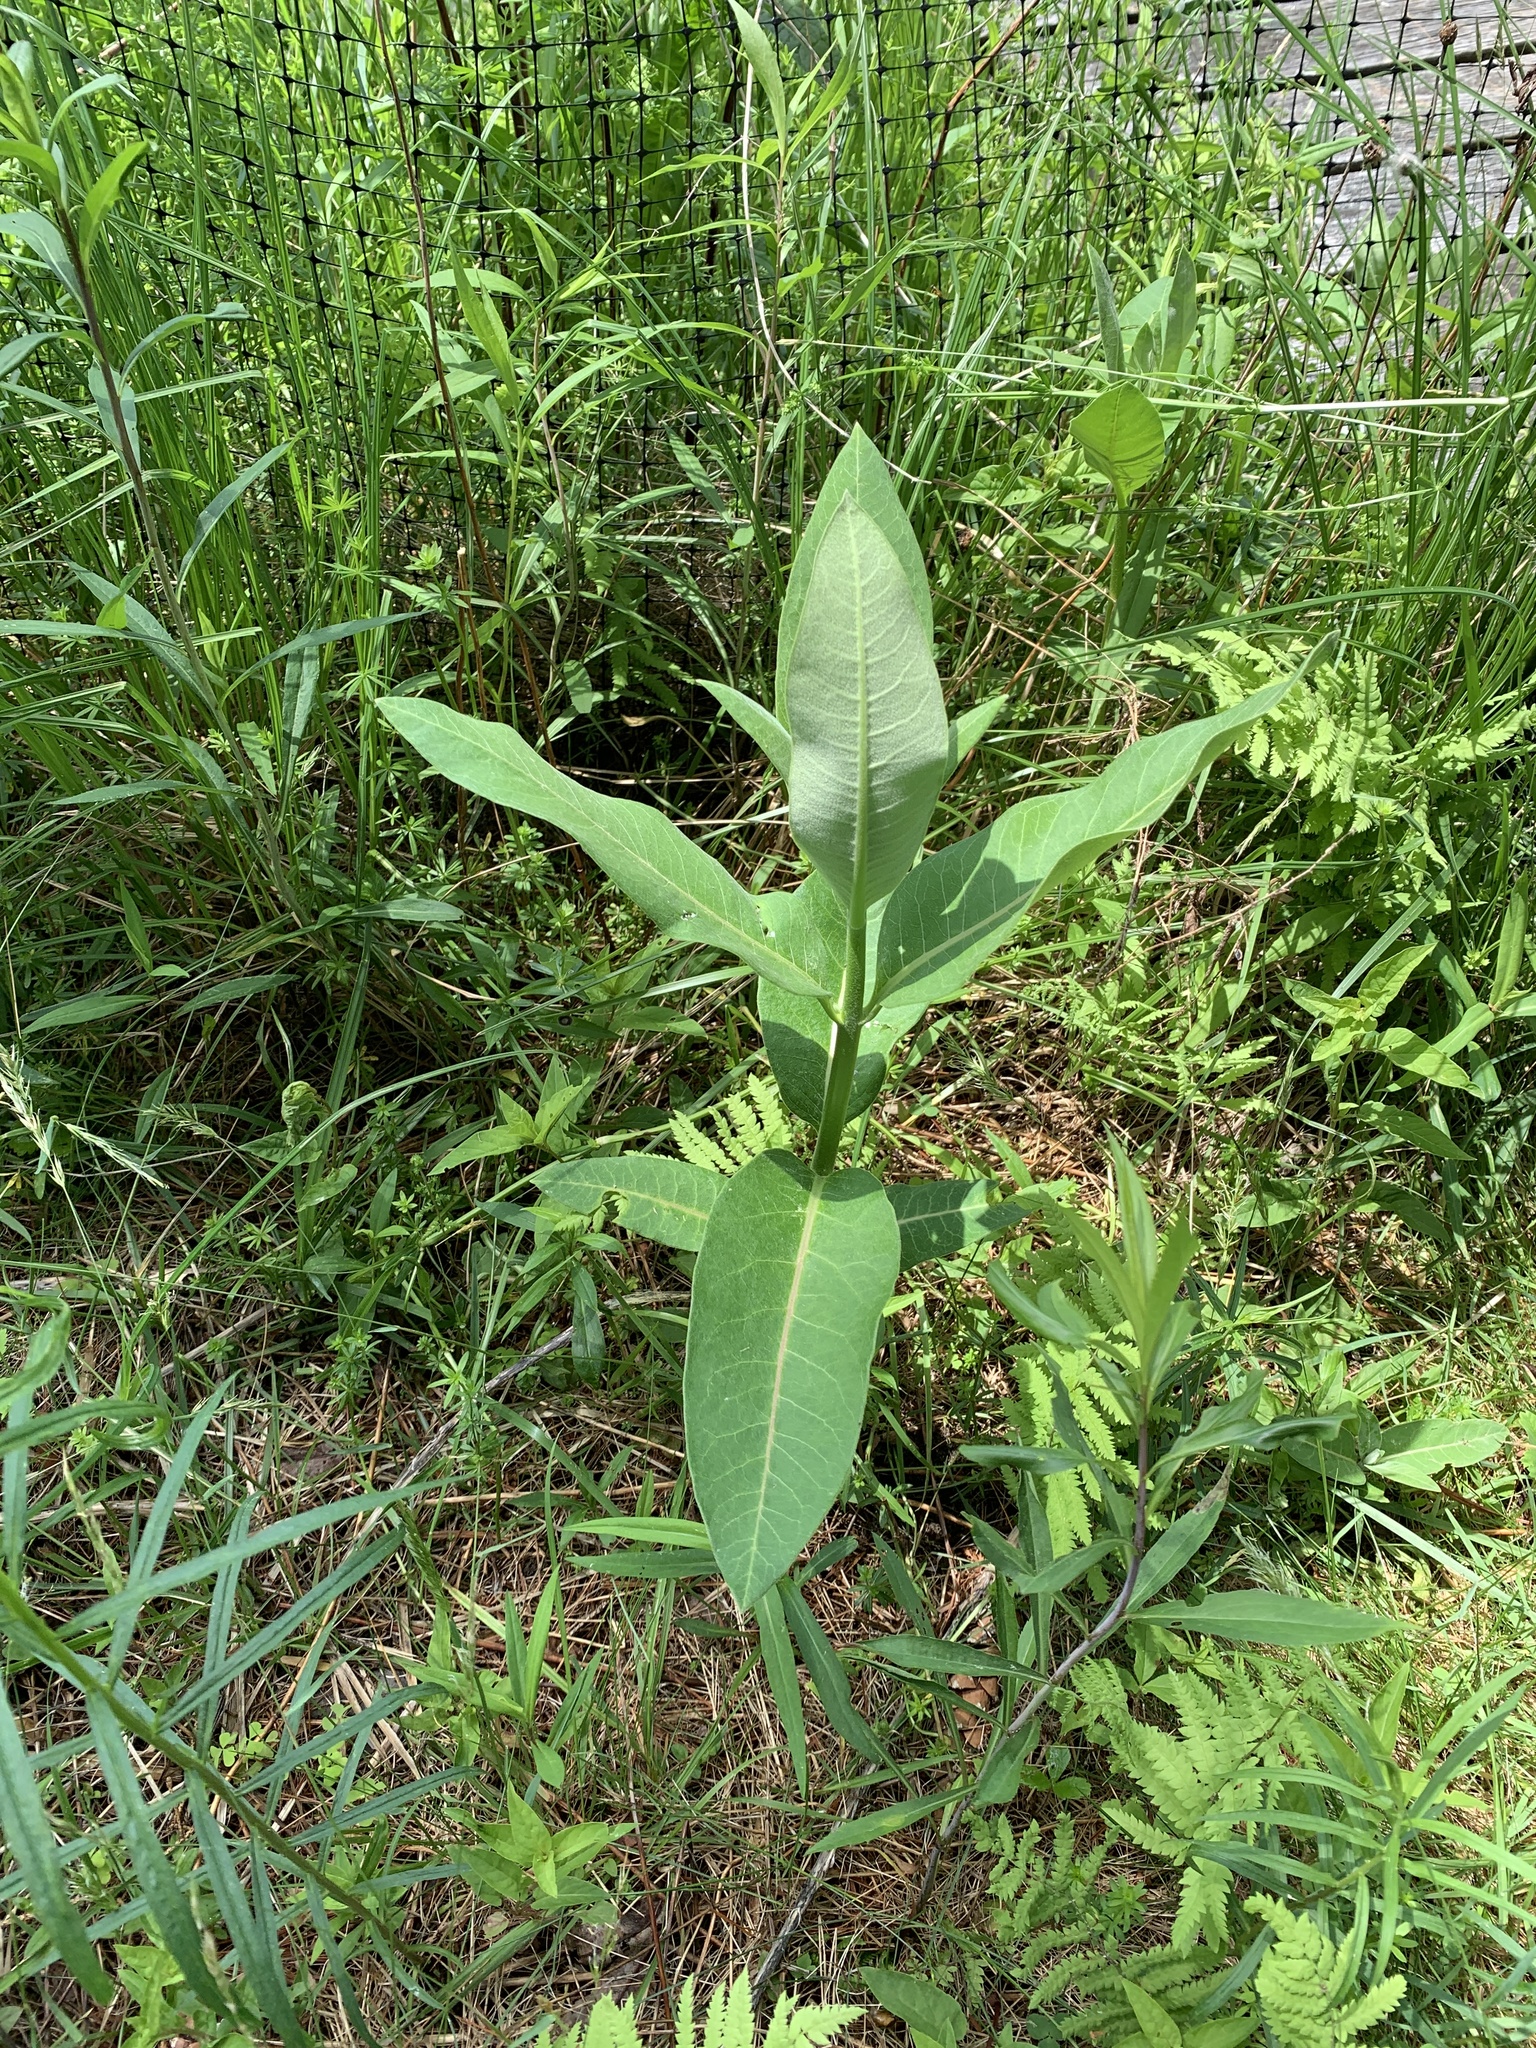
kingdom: Plantae
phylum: Tracheophyta
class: Magnoliopsida
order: Gentianales
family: Apocynaceae
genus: Asclepias
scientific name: Asclepias syriaca
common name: Common milkweed
